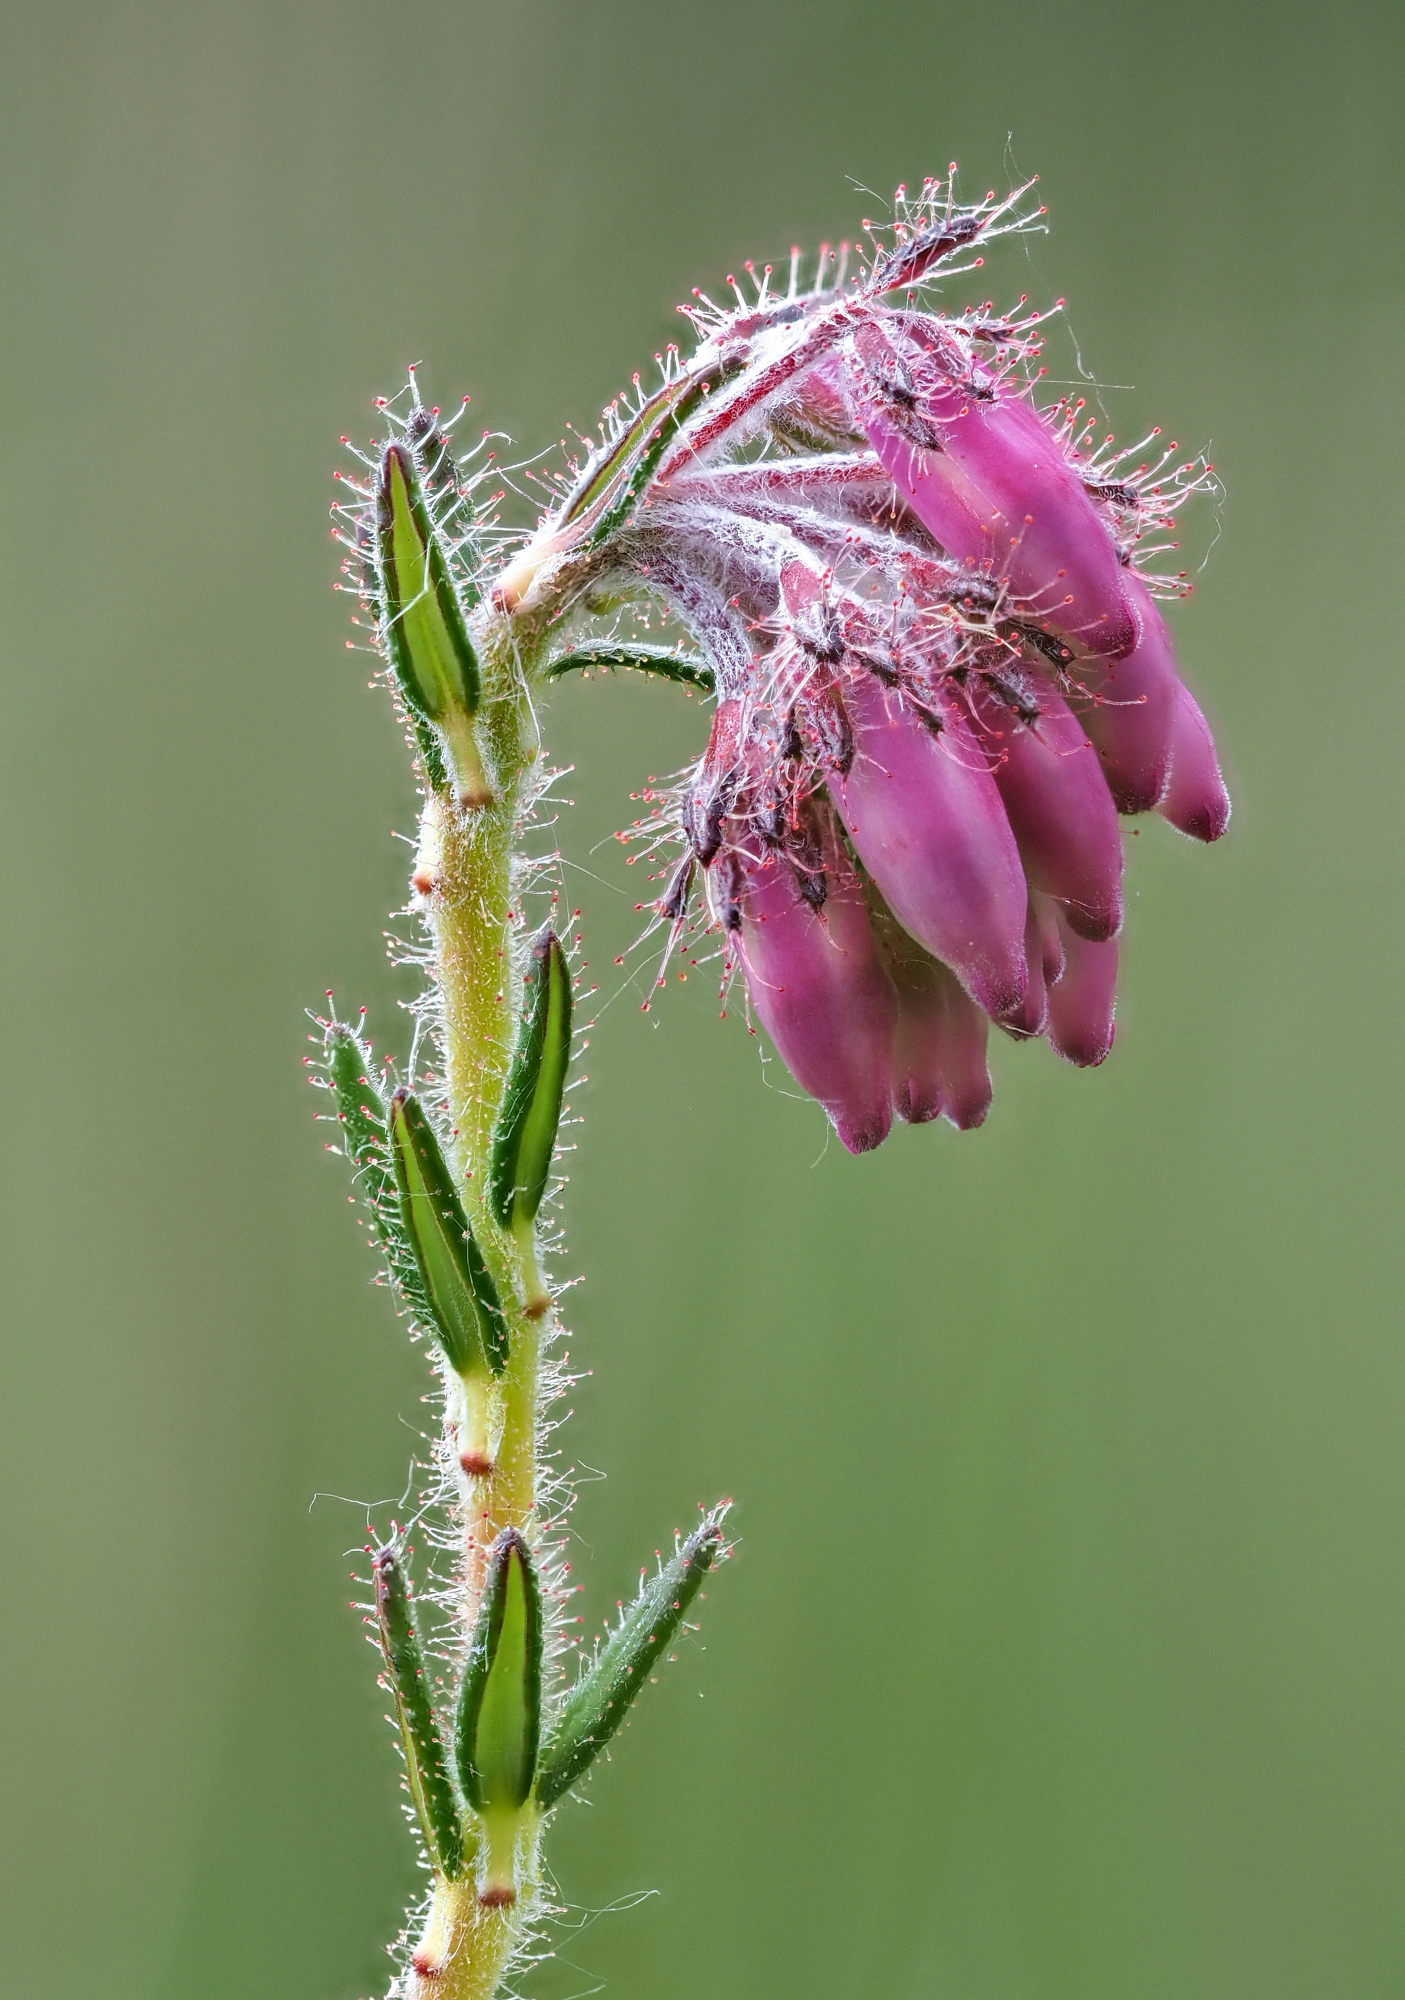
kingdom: Plantae
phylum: Tracheophyta
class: Magnoliopsida
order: Ericales
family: Ericaceae
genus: Erica
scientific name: Erica tetralix
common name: Cross-leaved heath
